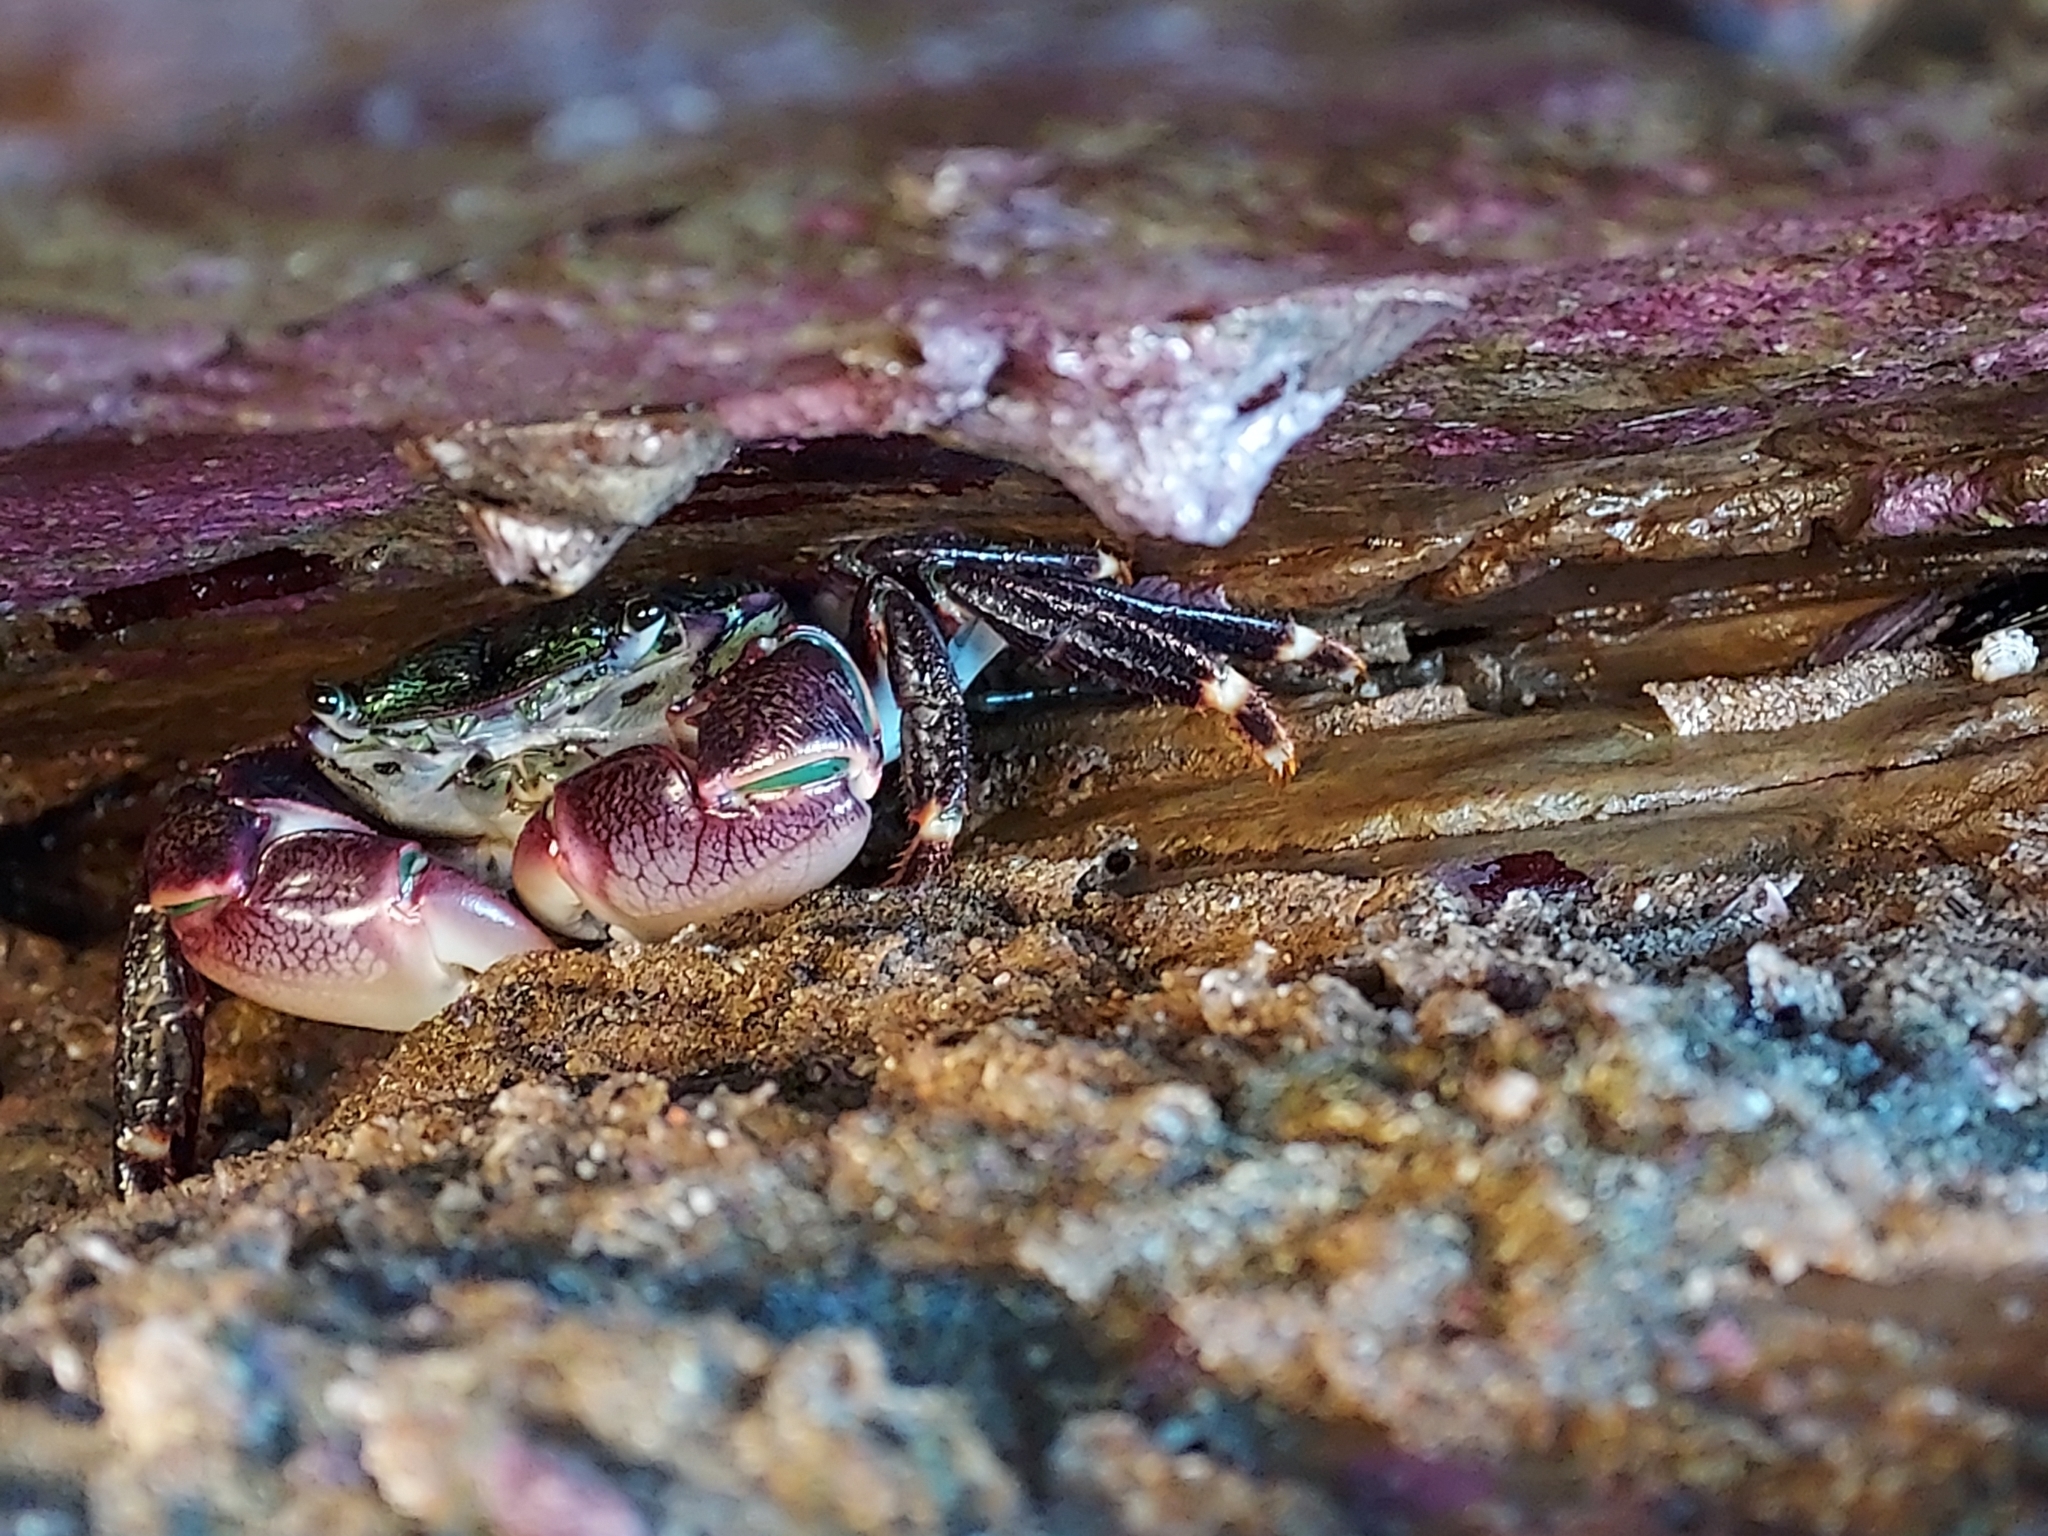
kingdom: Animalia
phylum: Arthropoda
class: Malacostraca
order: Decapoda
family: Grapsidae
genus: Pachygrapsus
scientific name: Pachygrapsus crassipes
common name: Striped shore crab
